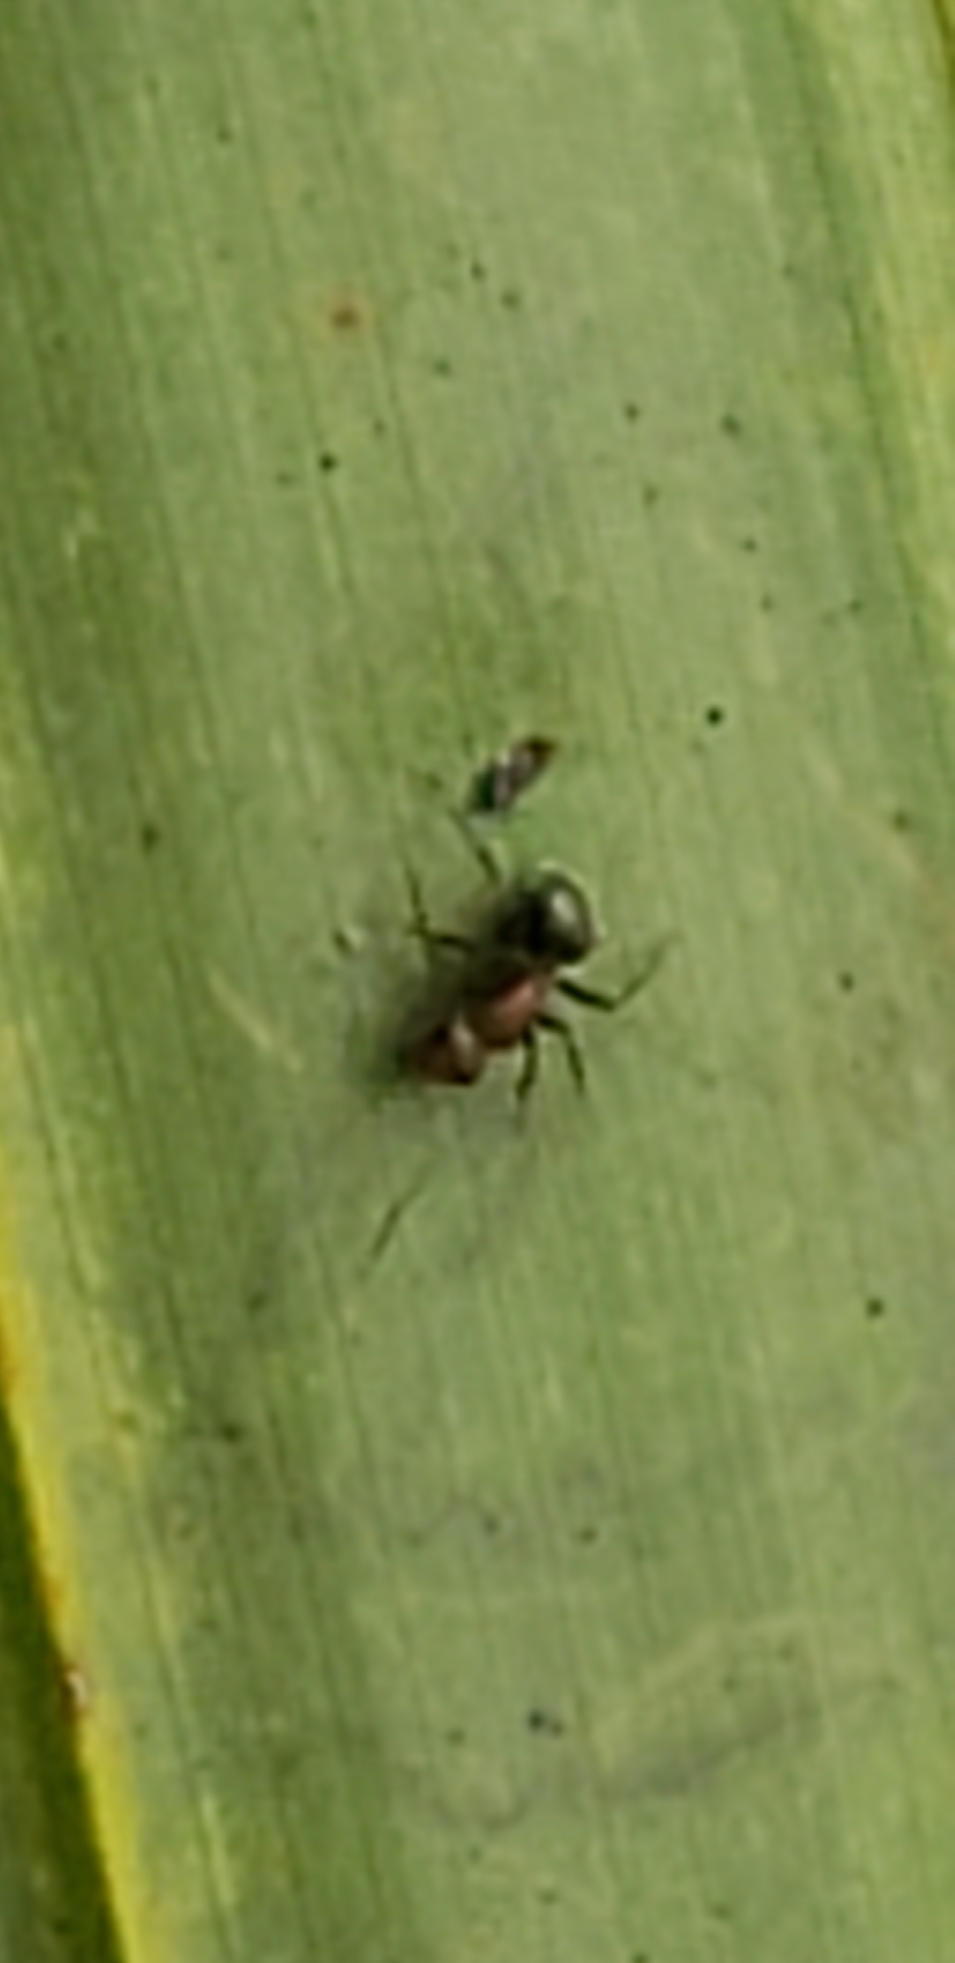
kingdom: Animalia
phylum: Arthropoda
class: Insecta
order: Hymenoptera
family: Formicidae
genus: Camponotus
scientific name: Camponotus planatus
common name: Compact carpenter ant
